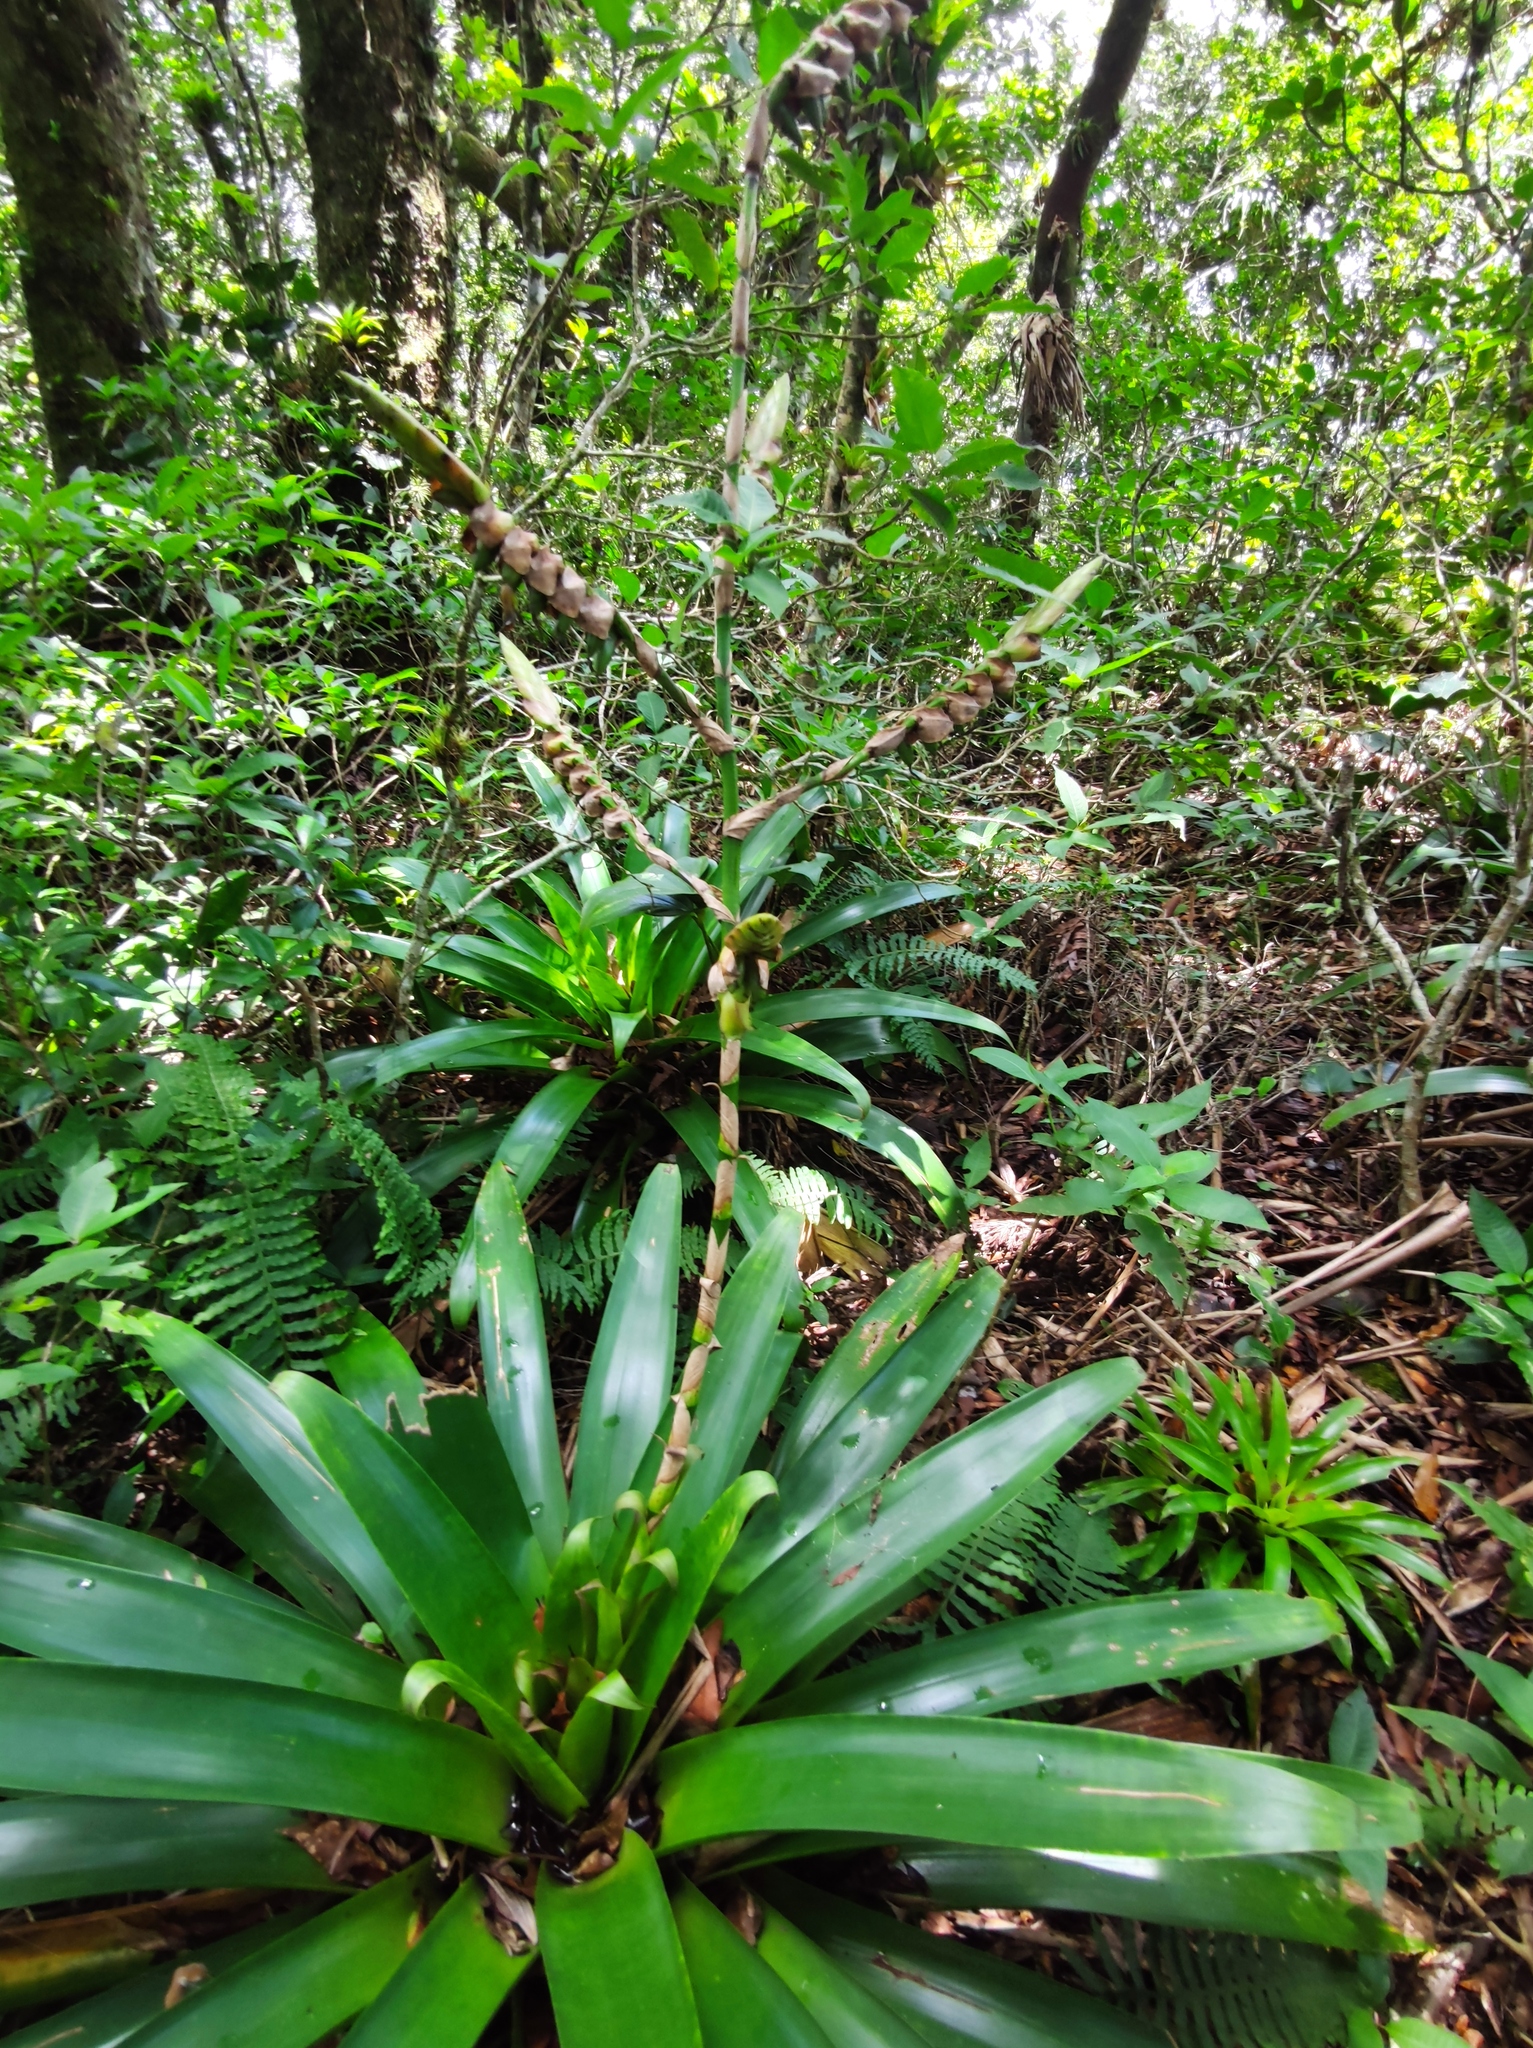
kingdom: Plantae
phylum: Tracheophyta
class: Liliopsida
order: Poales
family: Bromeliaceae
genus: Werauhia
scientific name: Werauhia werckleana
